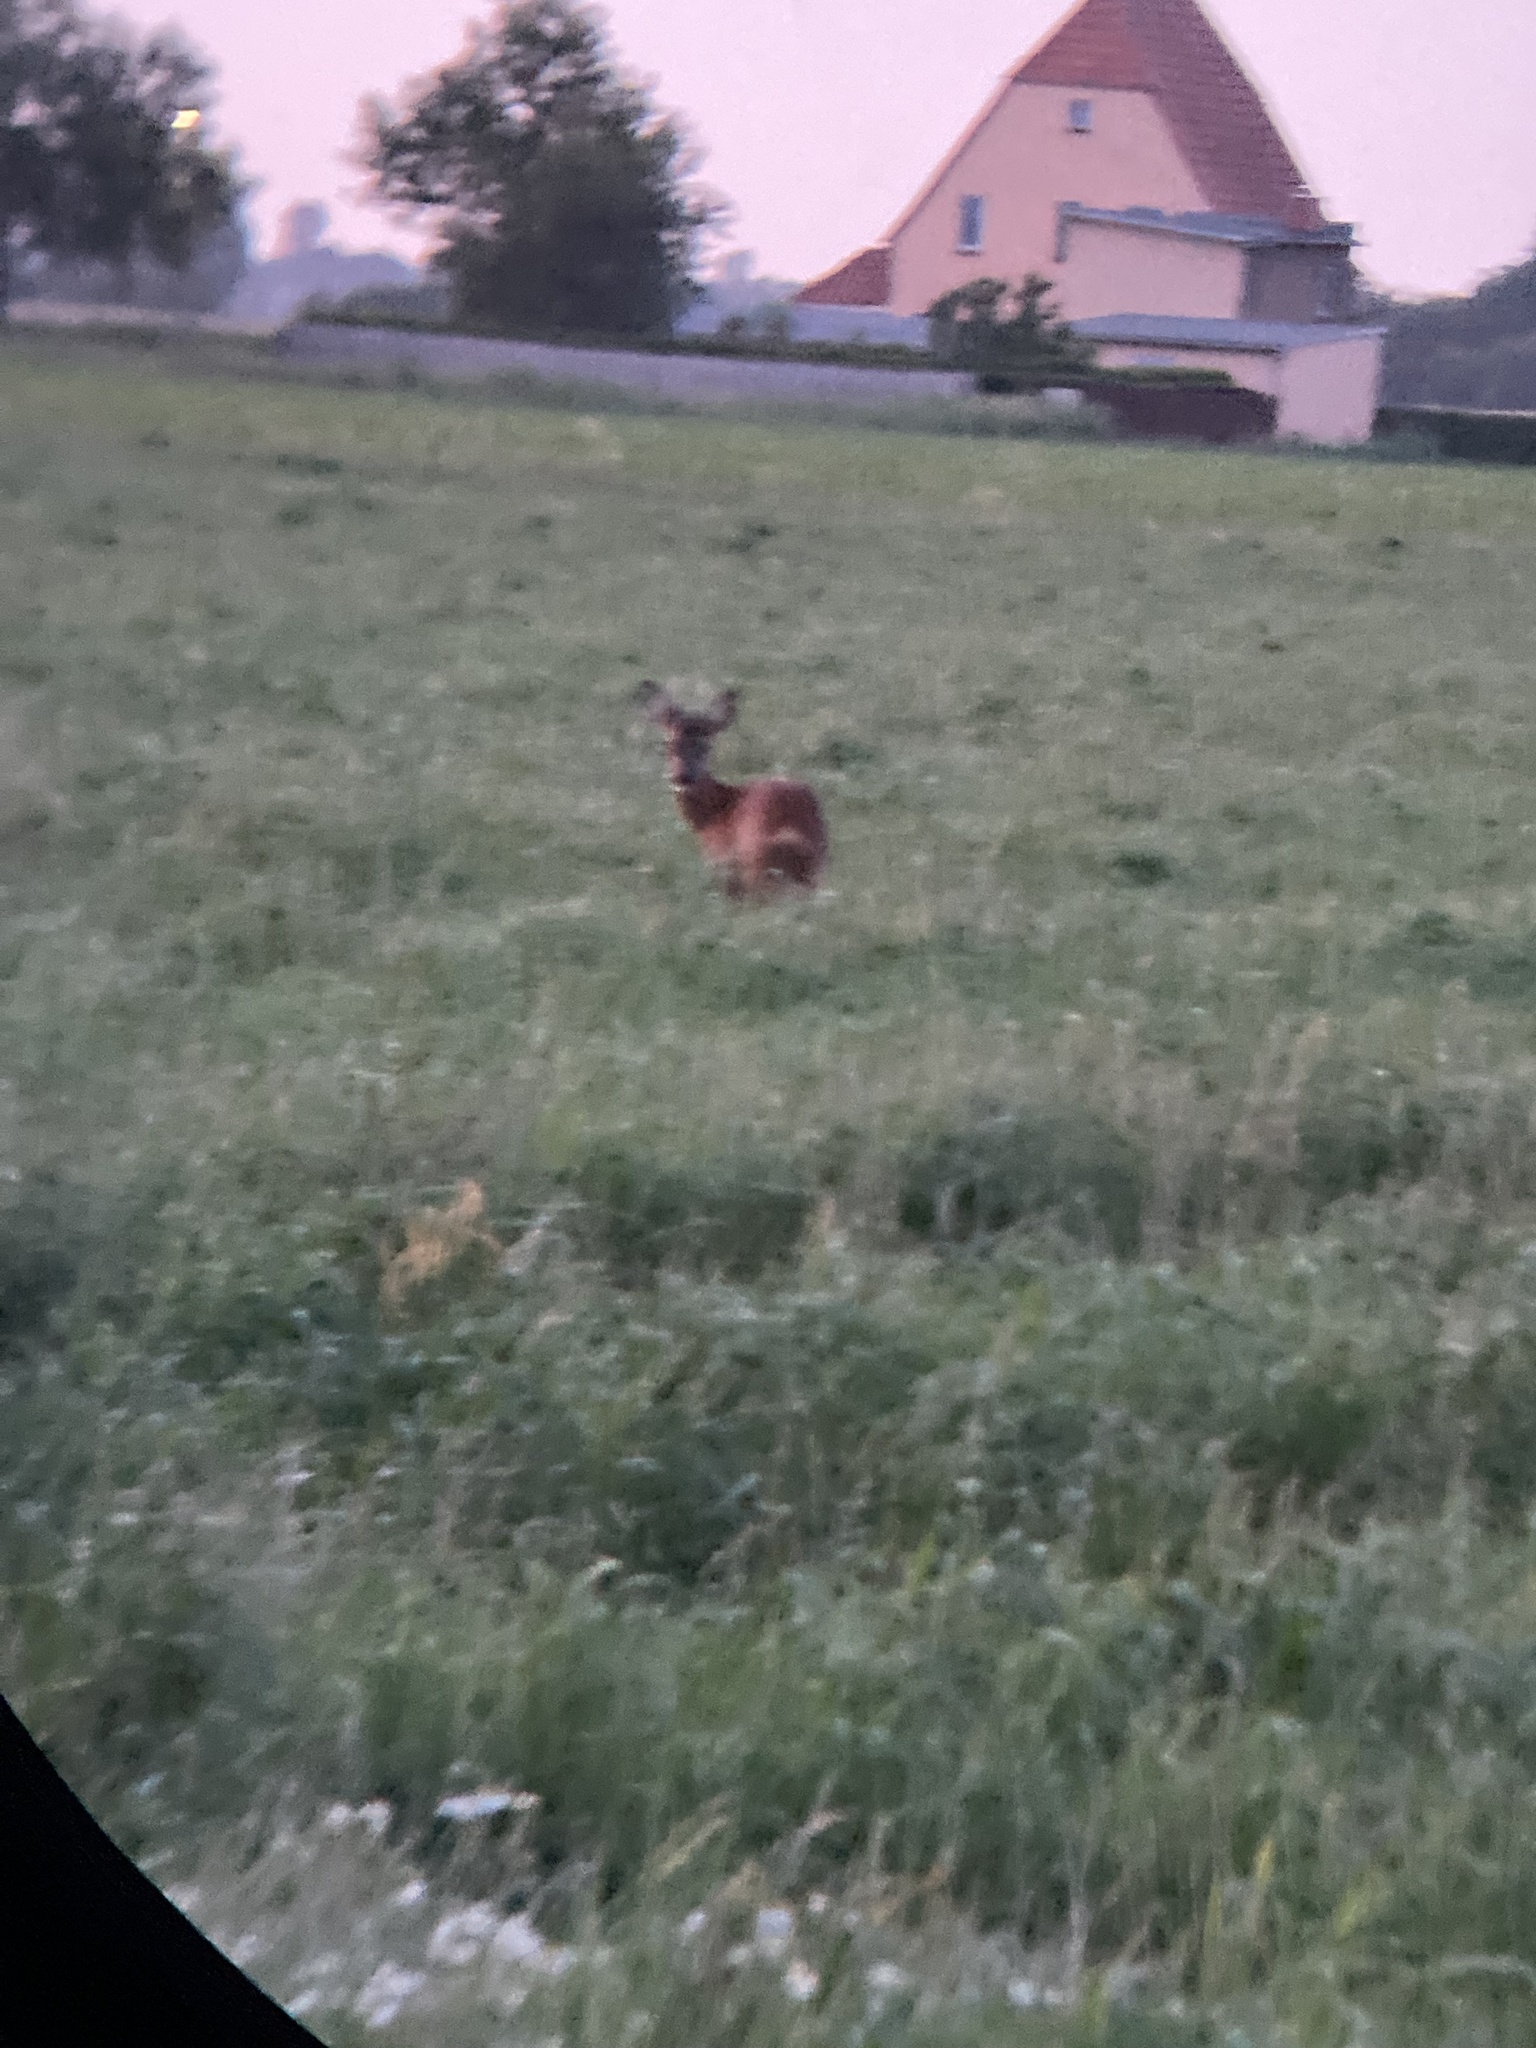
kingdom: Animalia
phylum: Chordata
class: Mammalia
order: Artiodactyla
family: Cervidae
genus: Capreolus
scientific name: Capreolus capreolus
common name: Western roe deer
